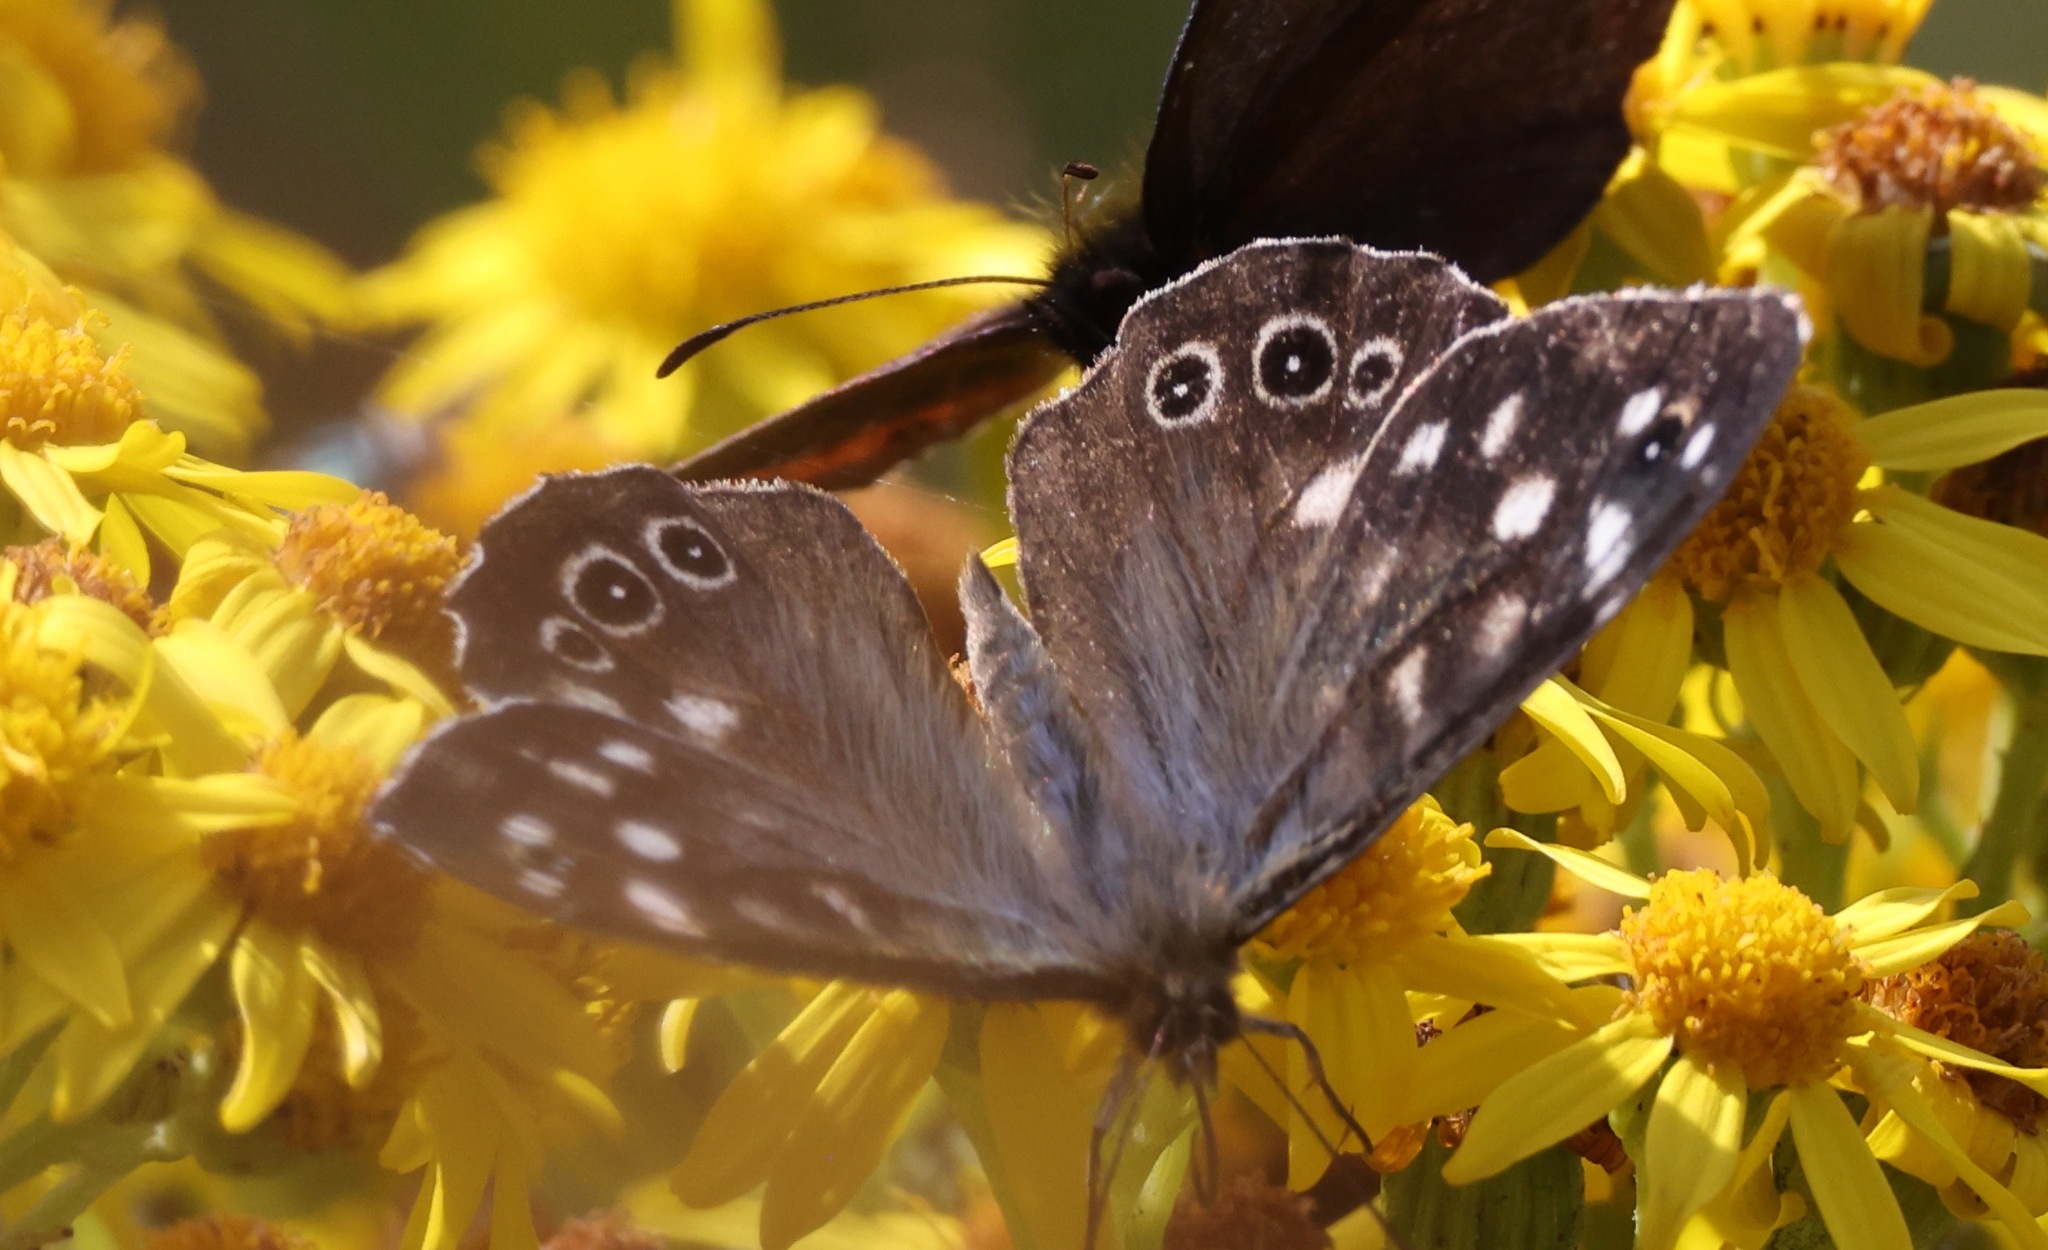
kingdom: Animalia
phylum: Arthropoda
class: Insecta
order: Lepidoptera
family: Nymphalidae
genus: Pararge
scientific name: Pararge aegeria
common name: Speckled wood
